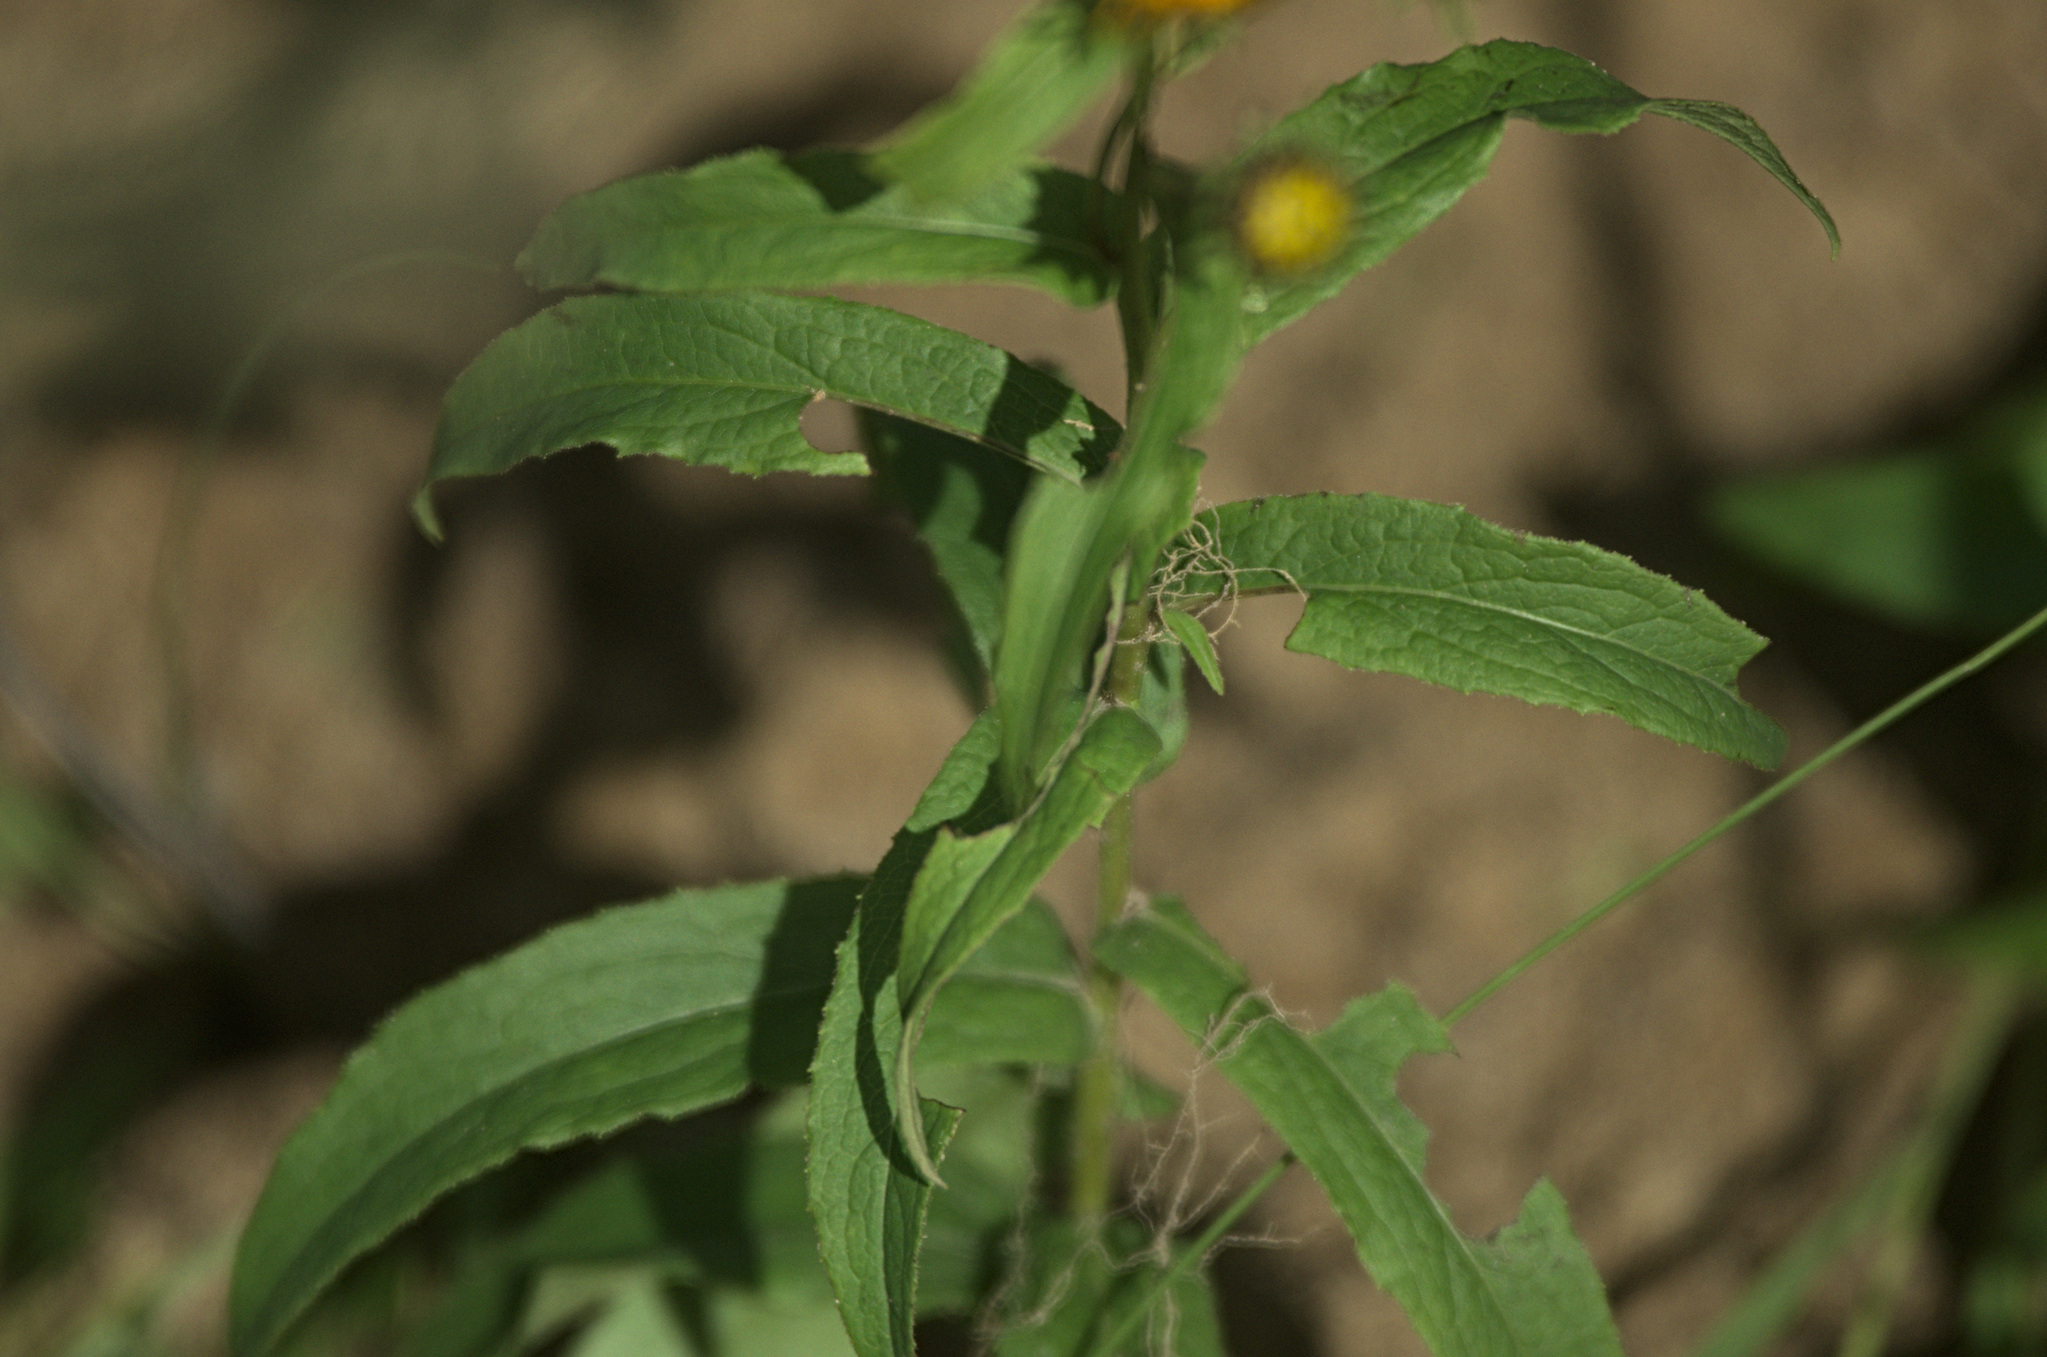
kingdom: Plantae
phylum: Tracheophyta
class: Magnoliopsida
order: Asterales
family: Asteraceae
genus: Pentanema
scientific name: Pentanema salicinum
